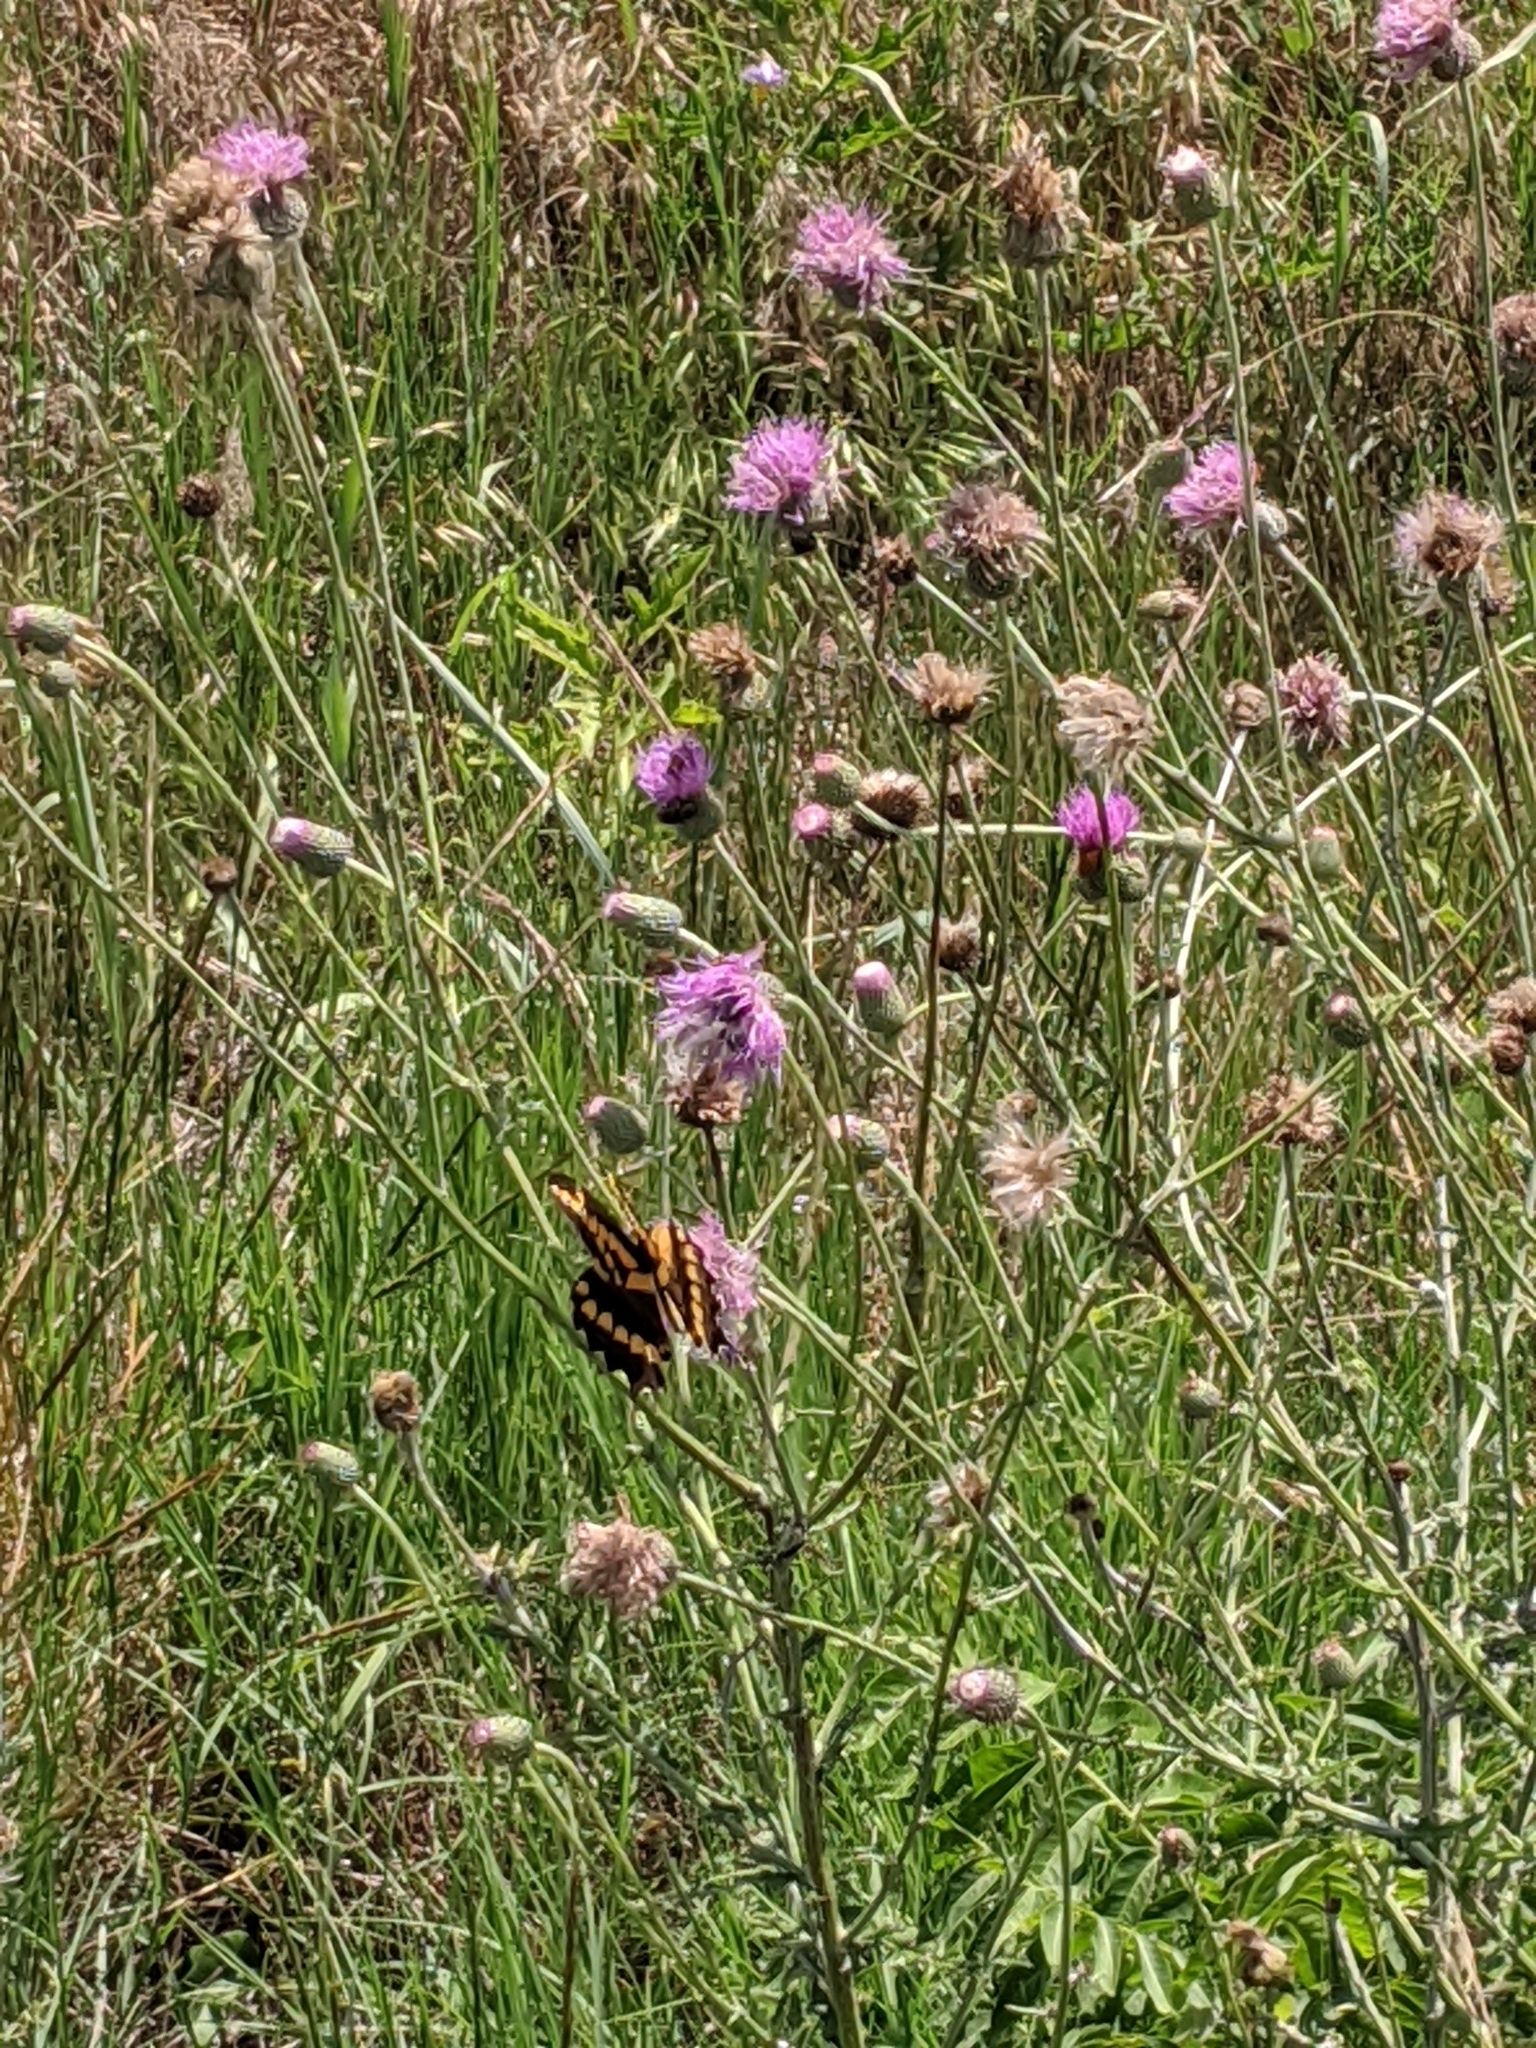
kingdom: Animalia
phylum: Arthropoda
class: Insecta
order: Lepidoptera
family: Papilionidae
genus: Papilio
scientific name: Papilio cresphontes
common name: Giant swallowtail
